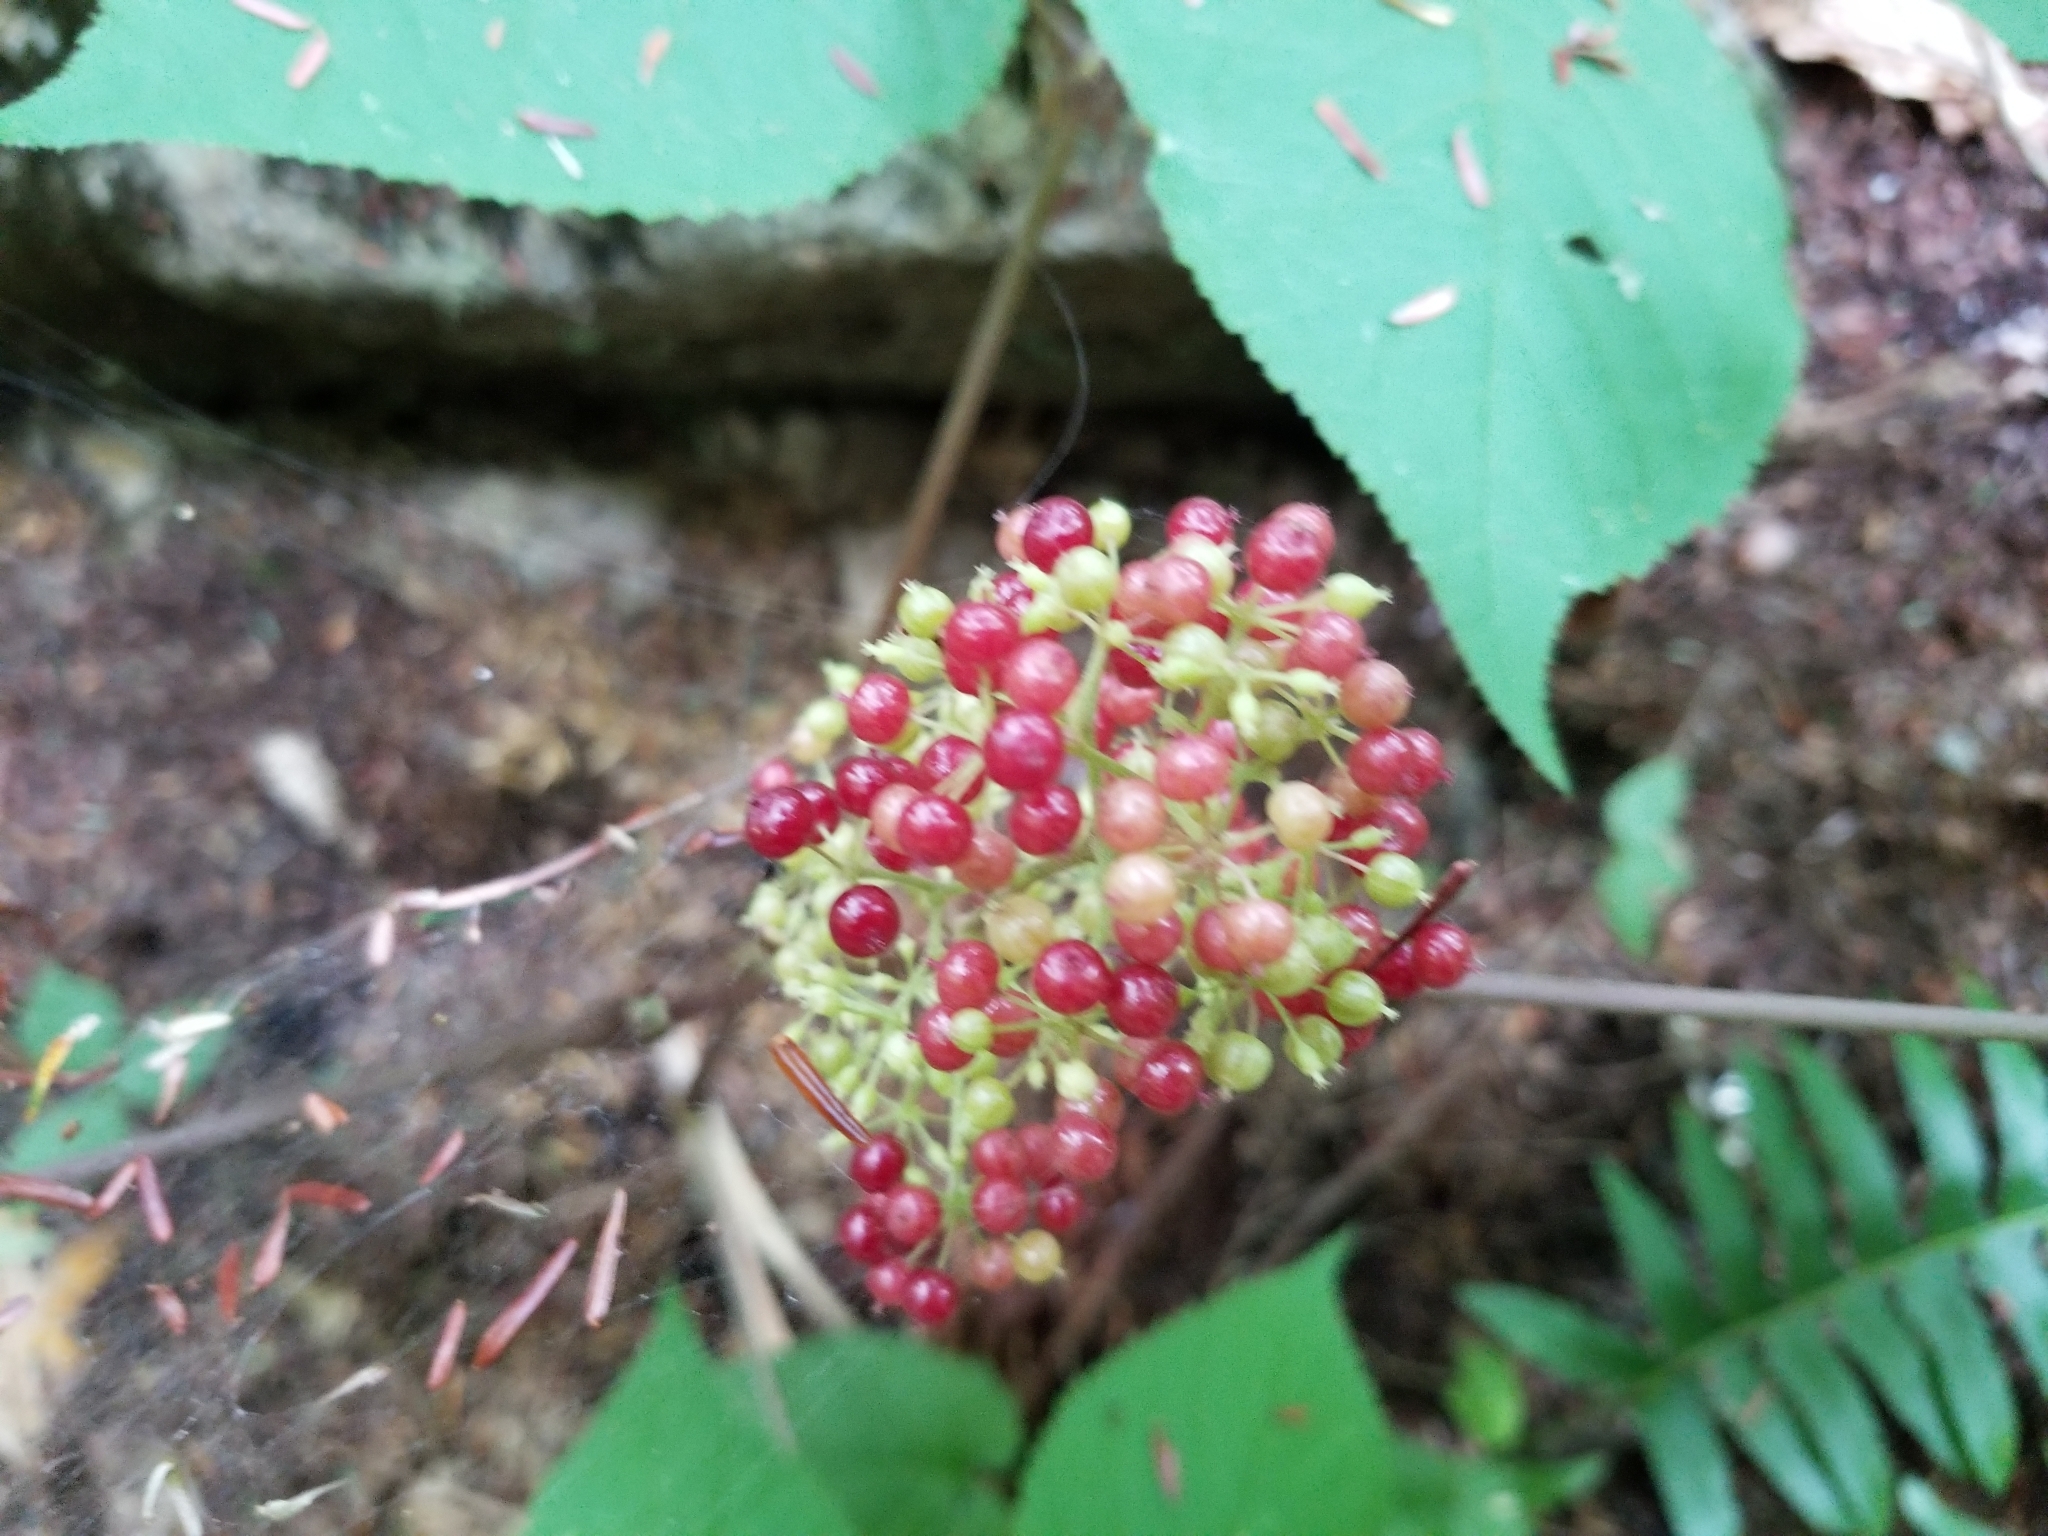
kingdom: Plantae
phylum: Tracheophyta
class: Magnoliopsida
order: Apiales
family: Araliaceae
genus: Aralia
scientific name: Aralia racemosa
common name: American-spikenard
